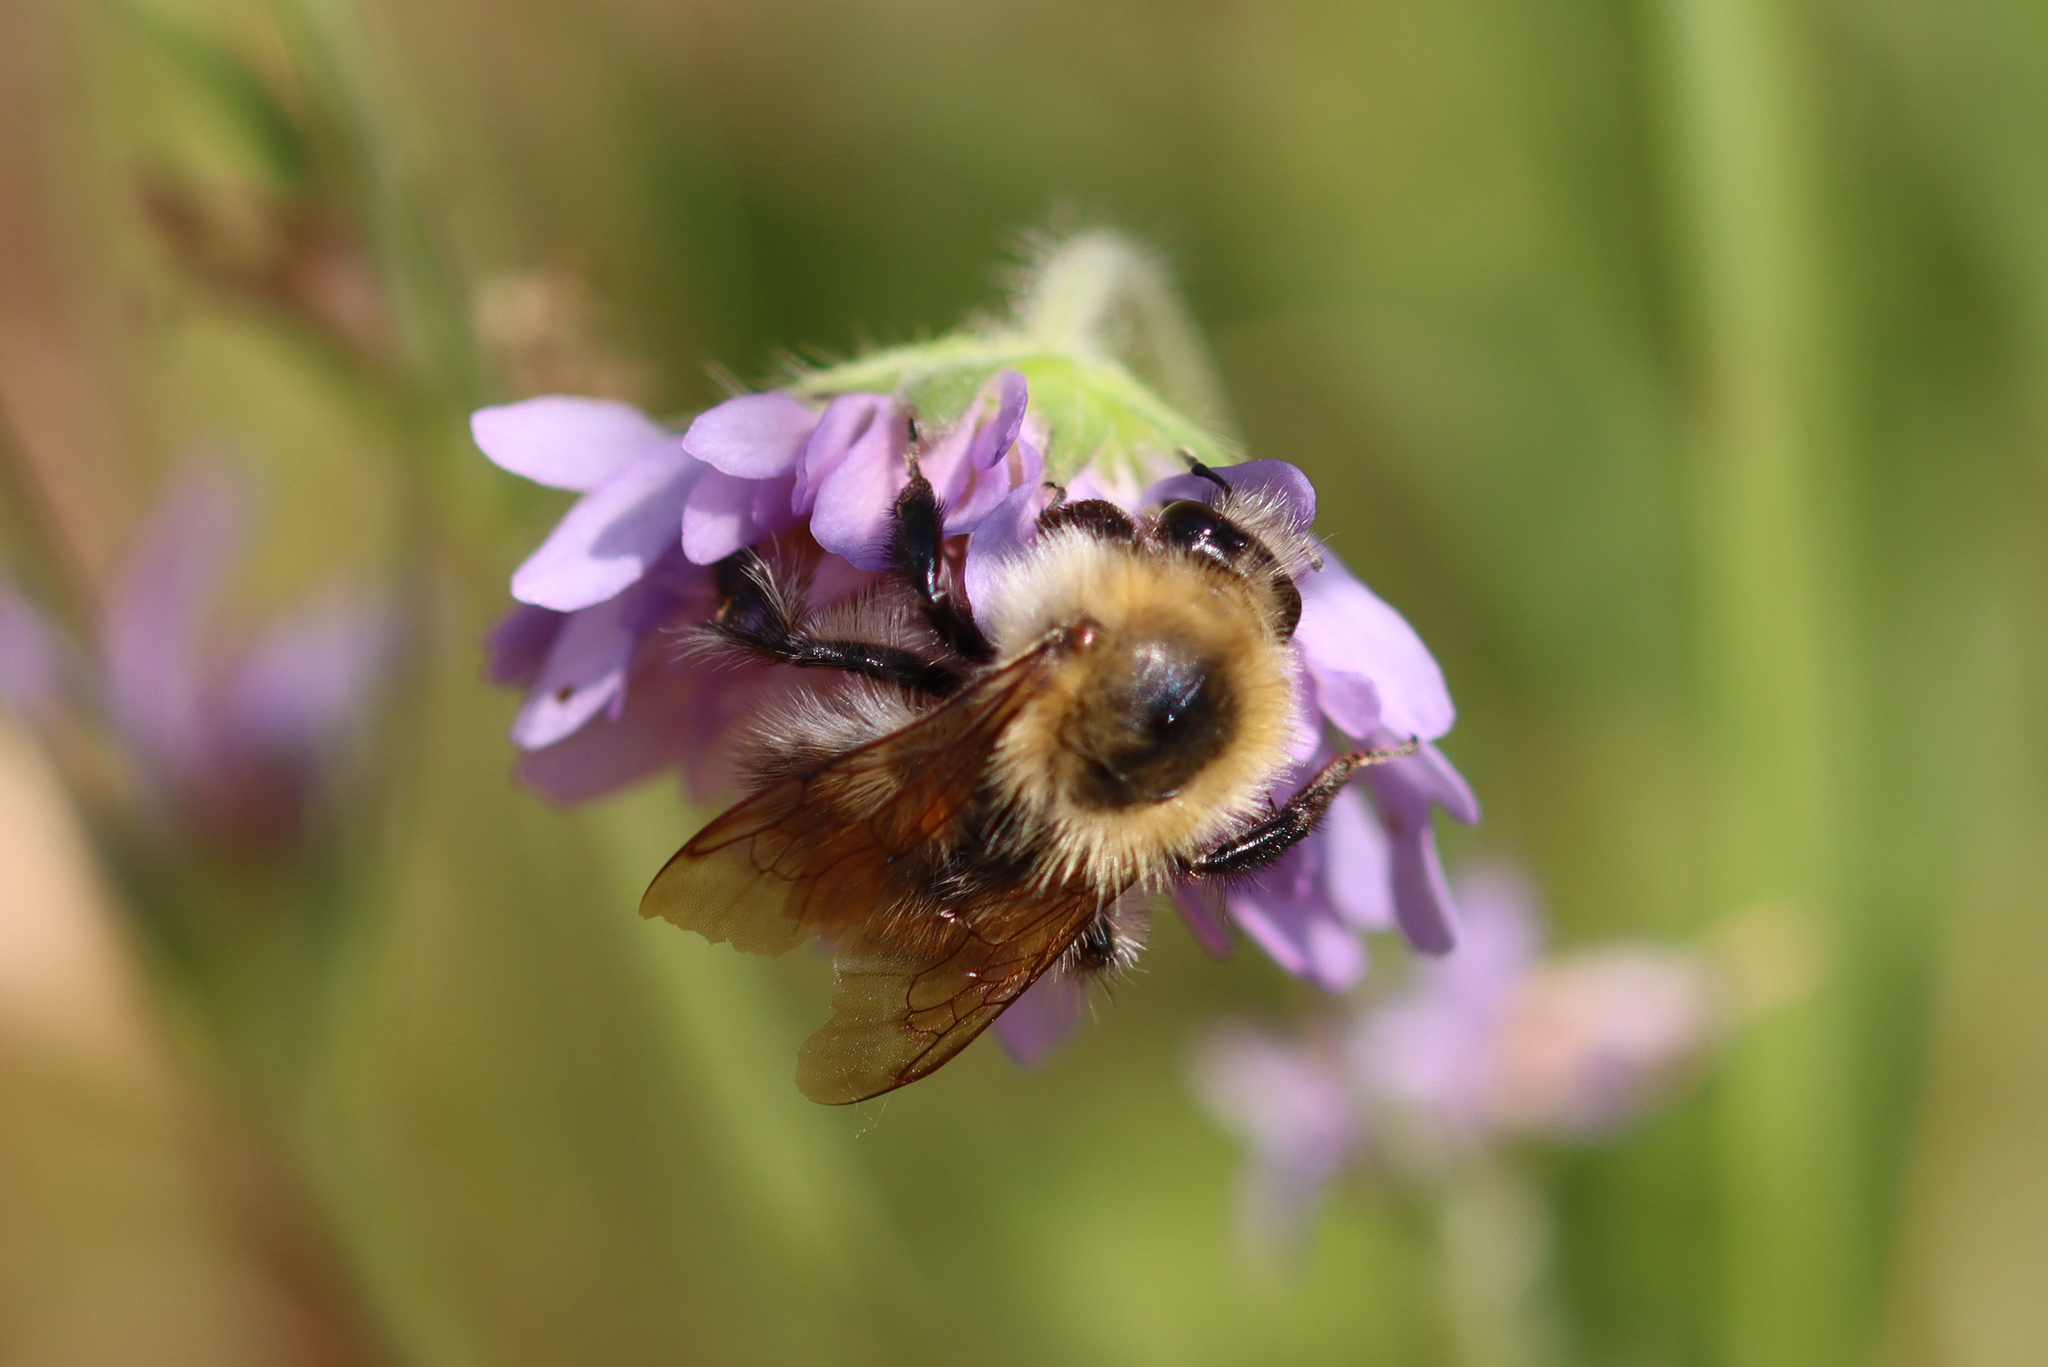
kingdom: Animalia
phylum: Arthropoda
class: Insecta
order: Hymenoptera
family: Apidae
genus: Bombus
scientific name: Bombus pascuorum
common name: Common carder bee
